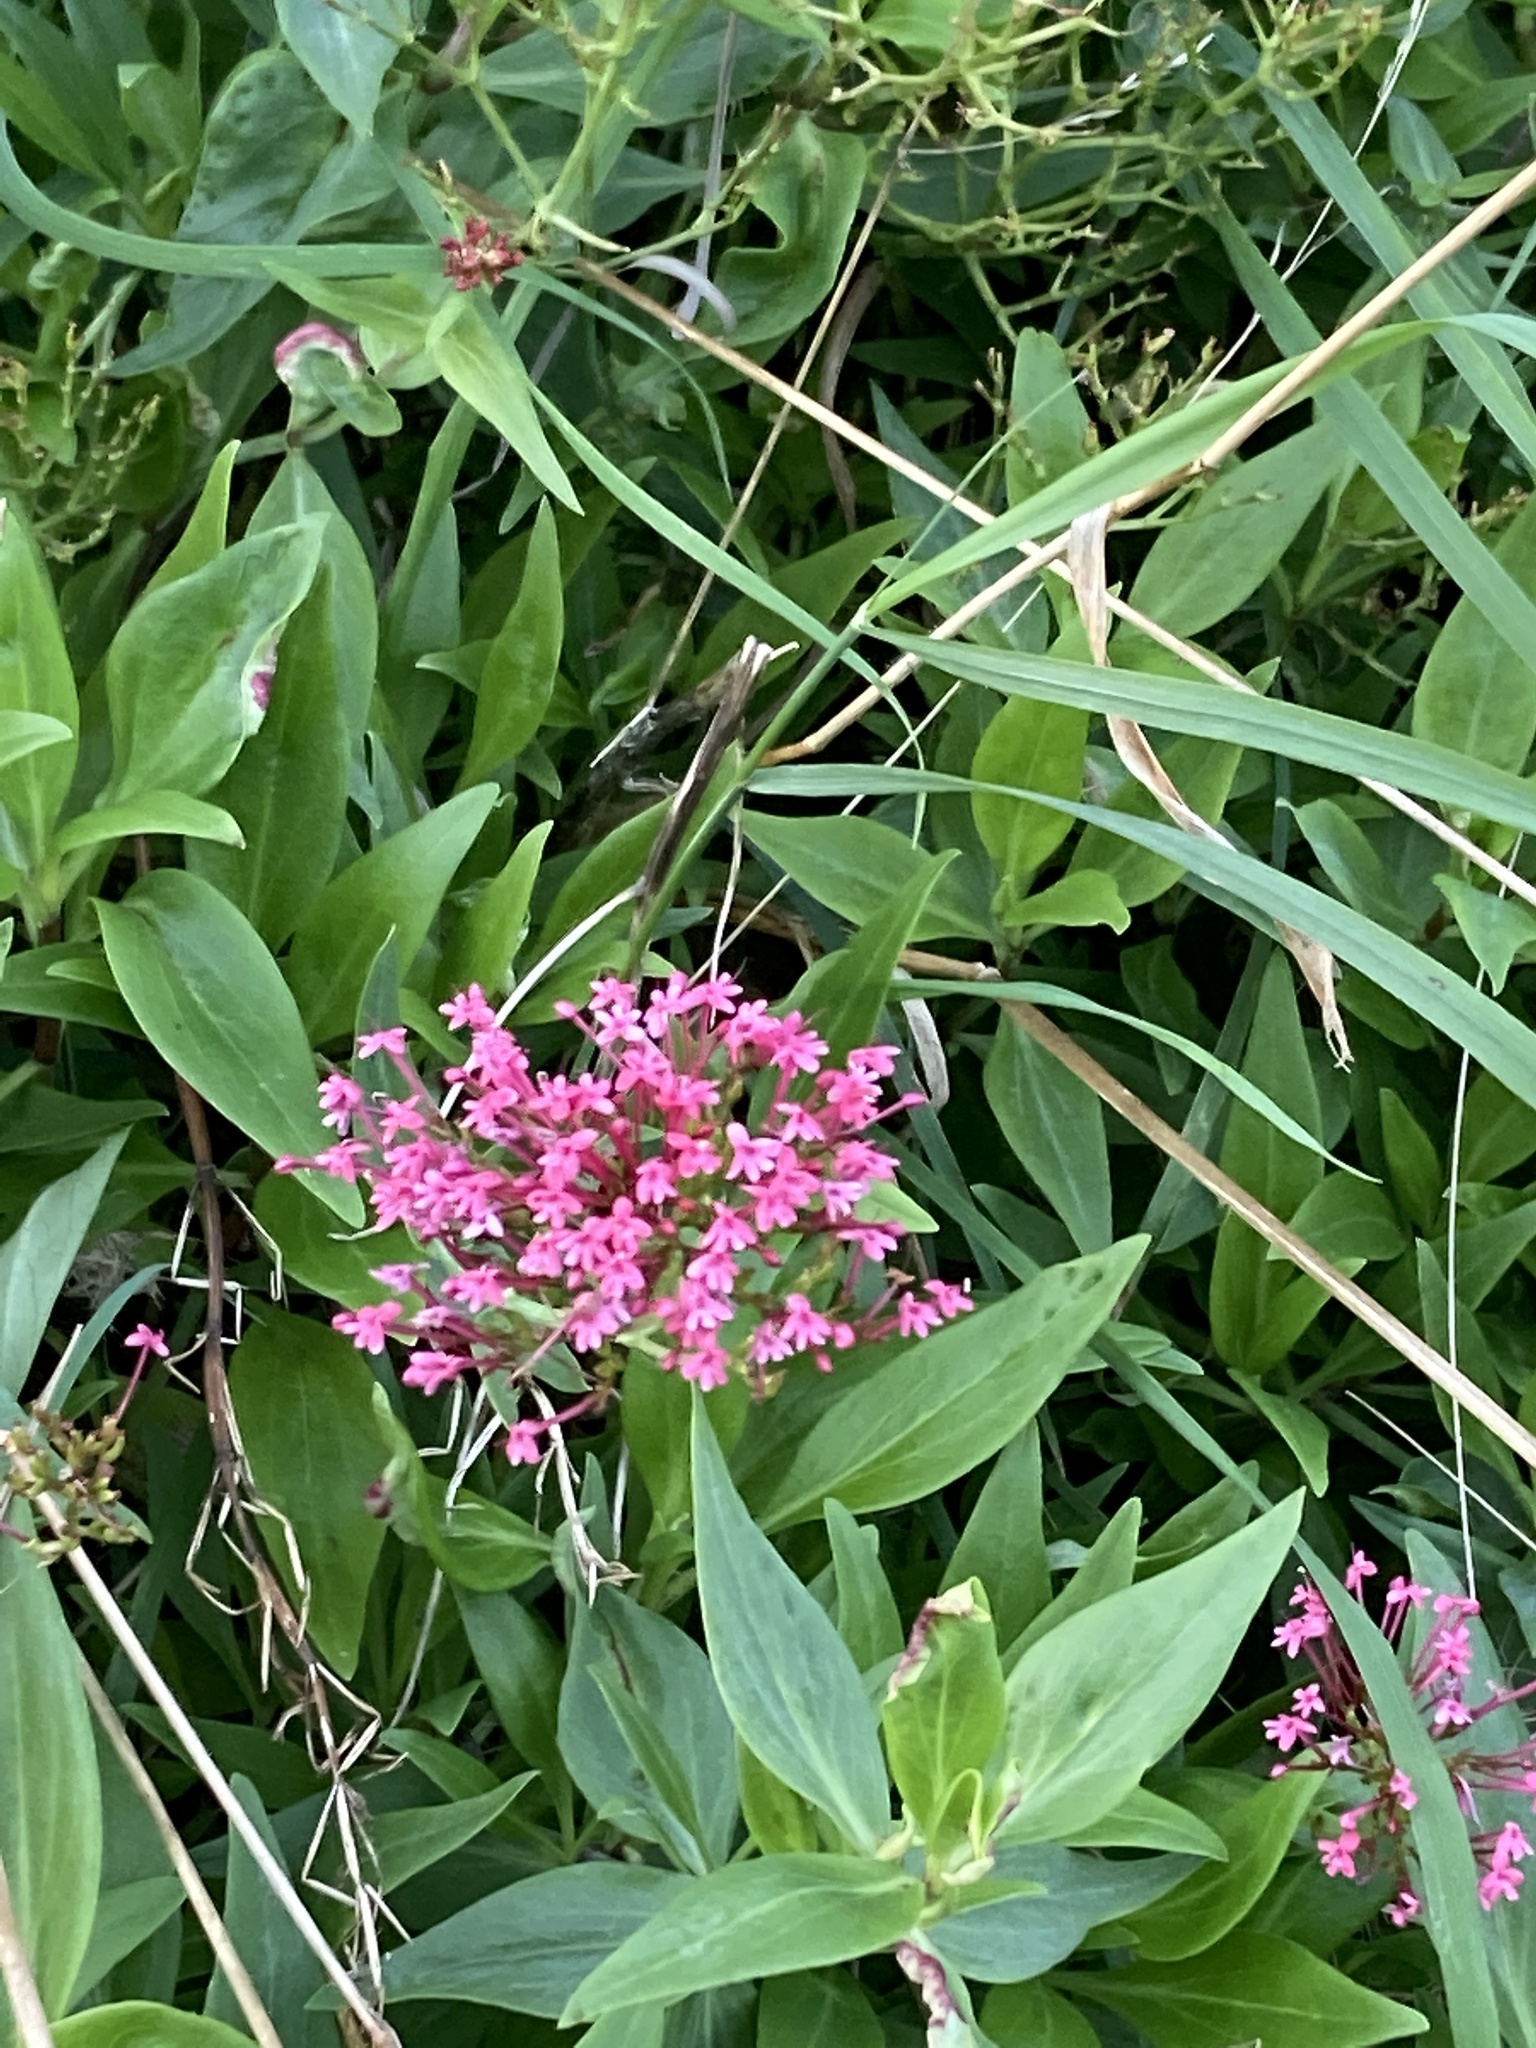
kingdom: Plantae
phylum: Tracheophyta
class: Magnoliopsida
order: Dipsacales
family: Caprifoliaceae
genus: Centranthus
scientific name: Centranthus ruber
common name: Red valerian
